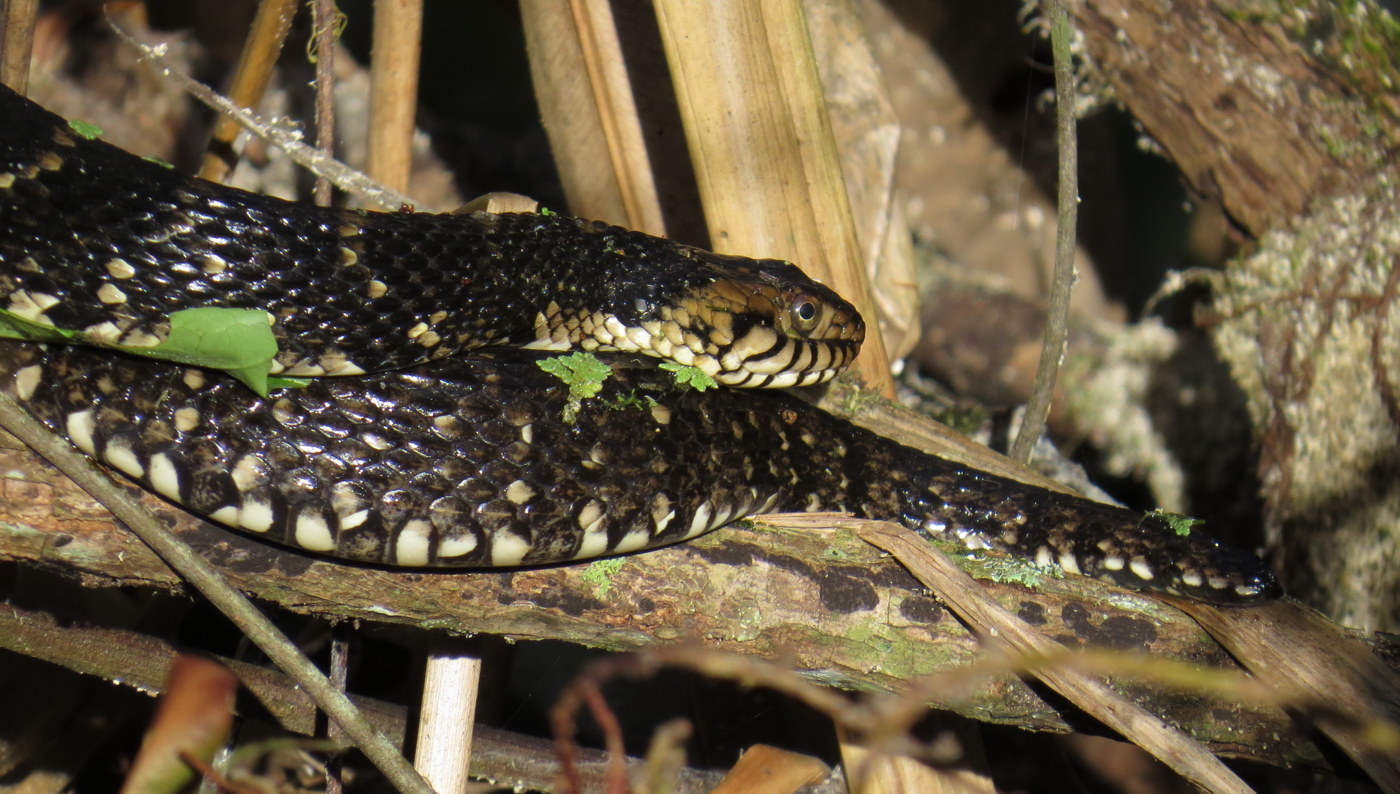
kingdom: Animalia
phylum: Chordata
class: Squamata
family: Colubridae
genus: Nerodia
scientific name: Nerodia fasciata
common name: Southern water snake
